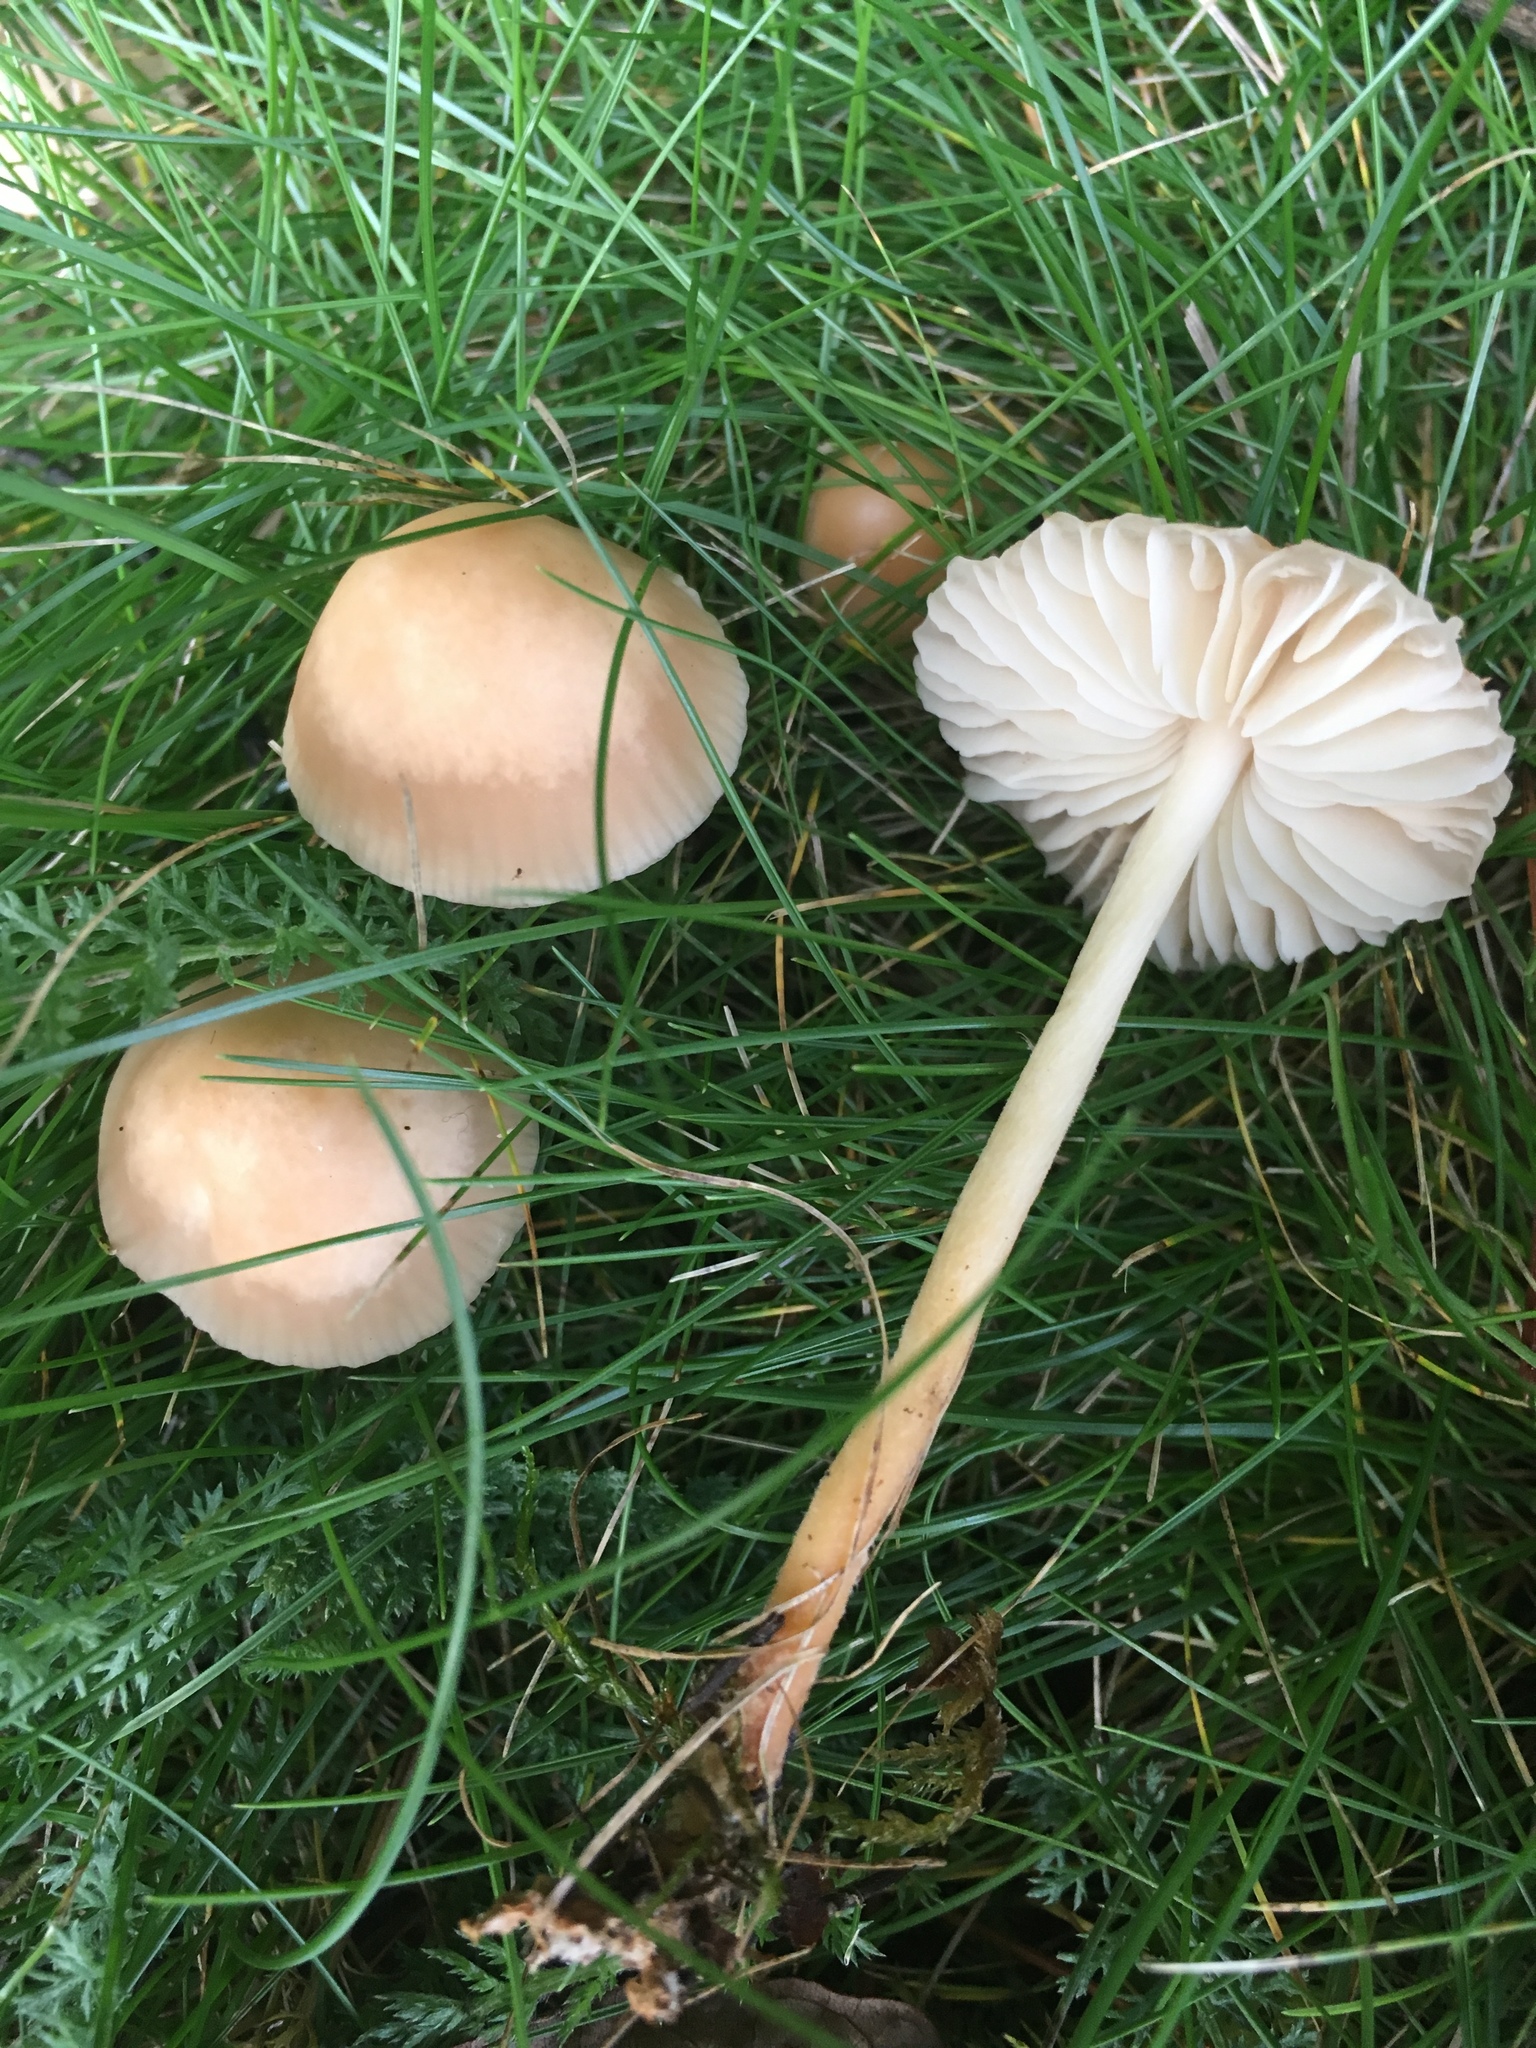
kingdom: Fungi
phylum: Basidiomycota
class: Agaricomycetes
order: Agaricales
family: Marasmiaceae
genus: Marasmius
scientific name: Marasmius oreades
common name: Fairy ring champignon
